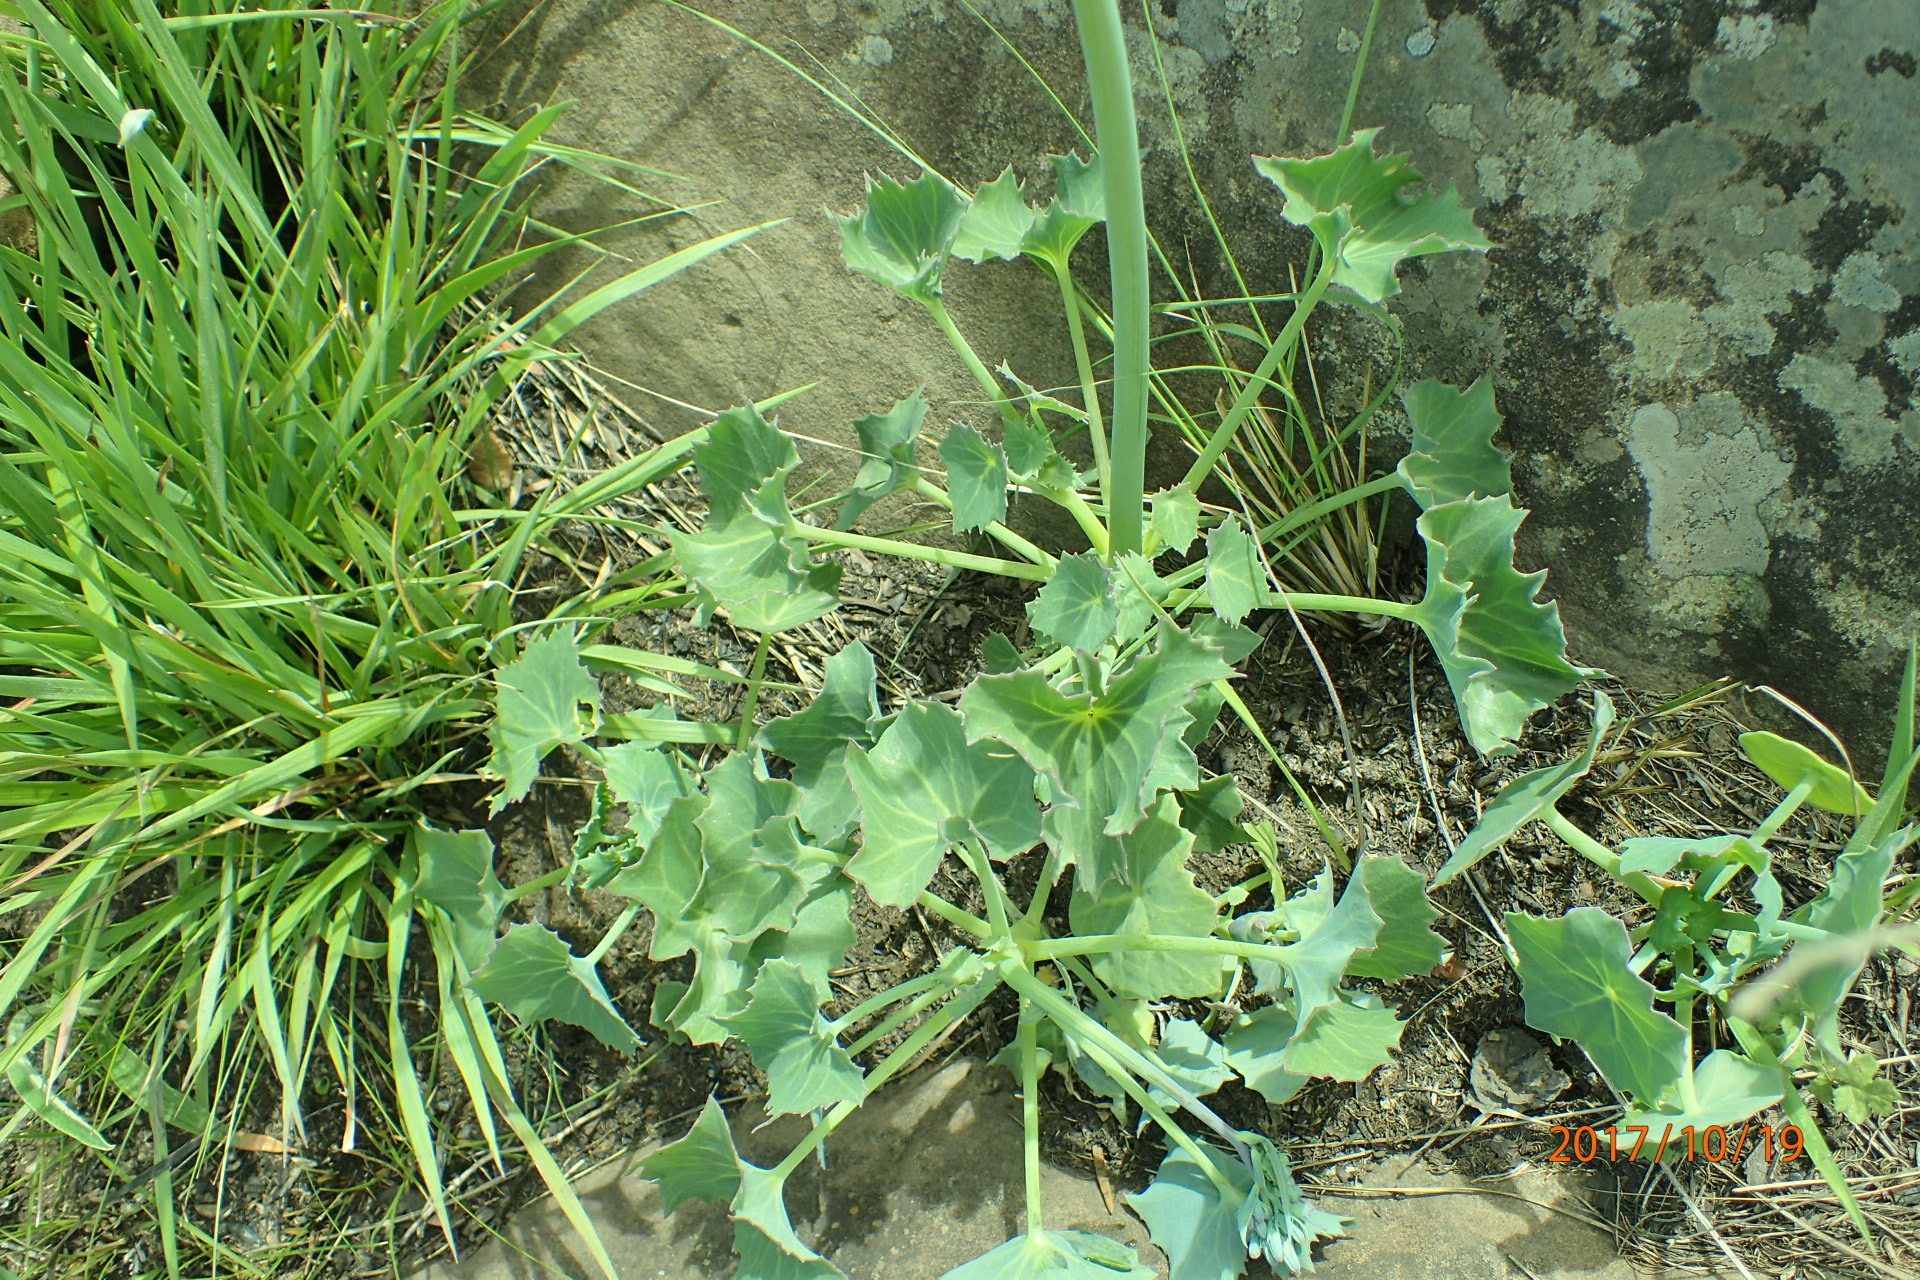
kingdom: Plantae
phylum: Tracheophyta
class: Magnoliopsida
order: Asterales
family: Asteraceae
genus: Senecio
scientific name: Senecio oxyriifolius
